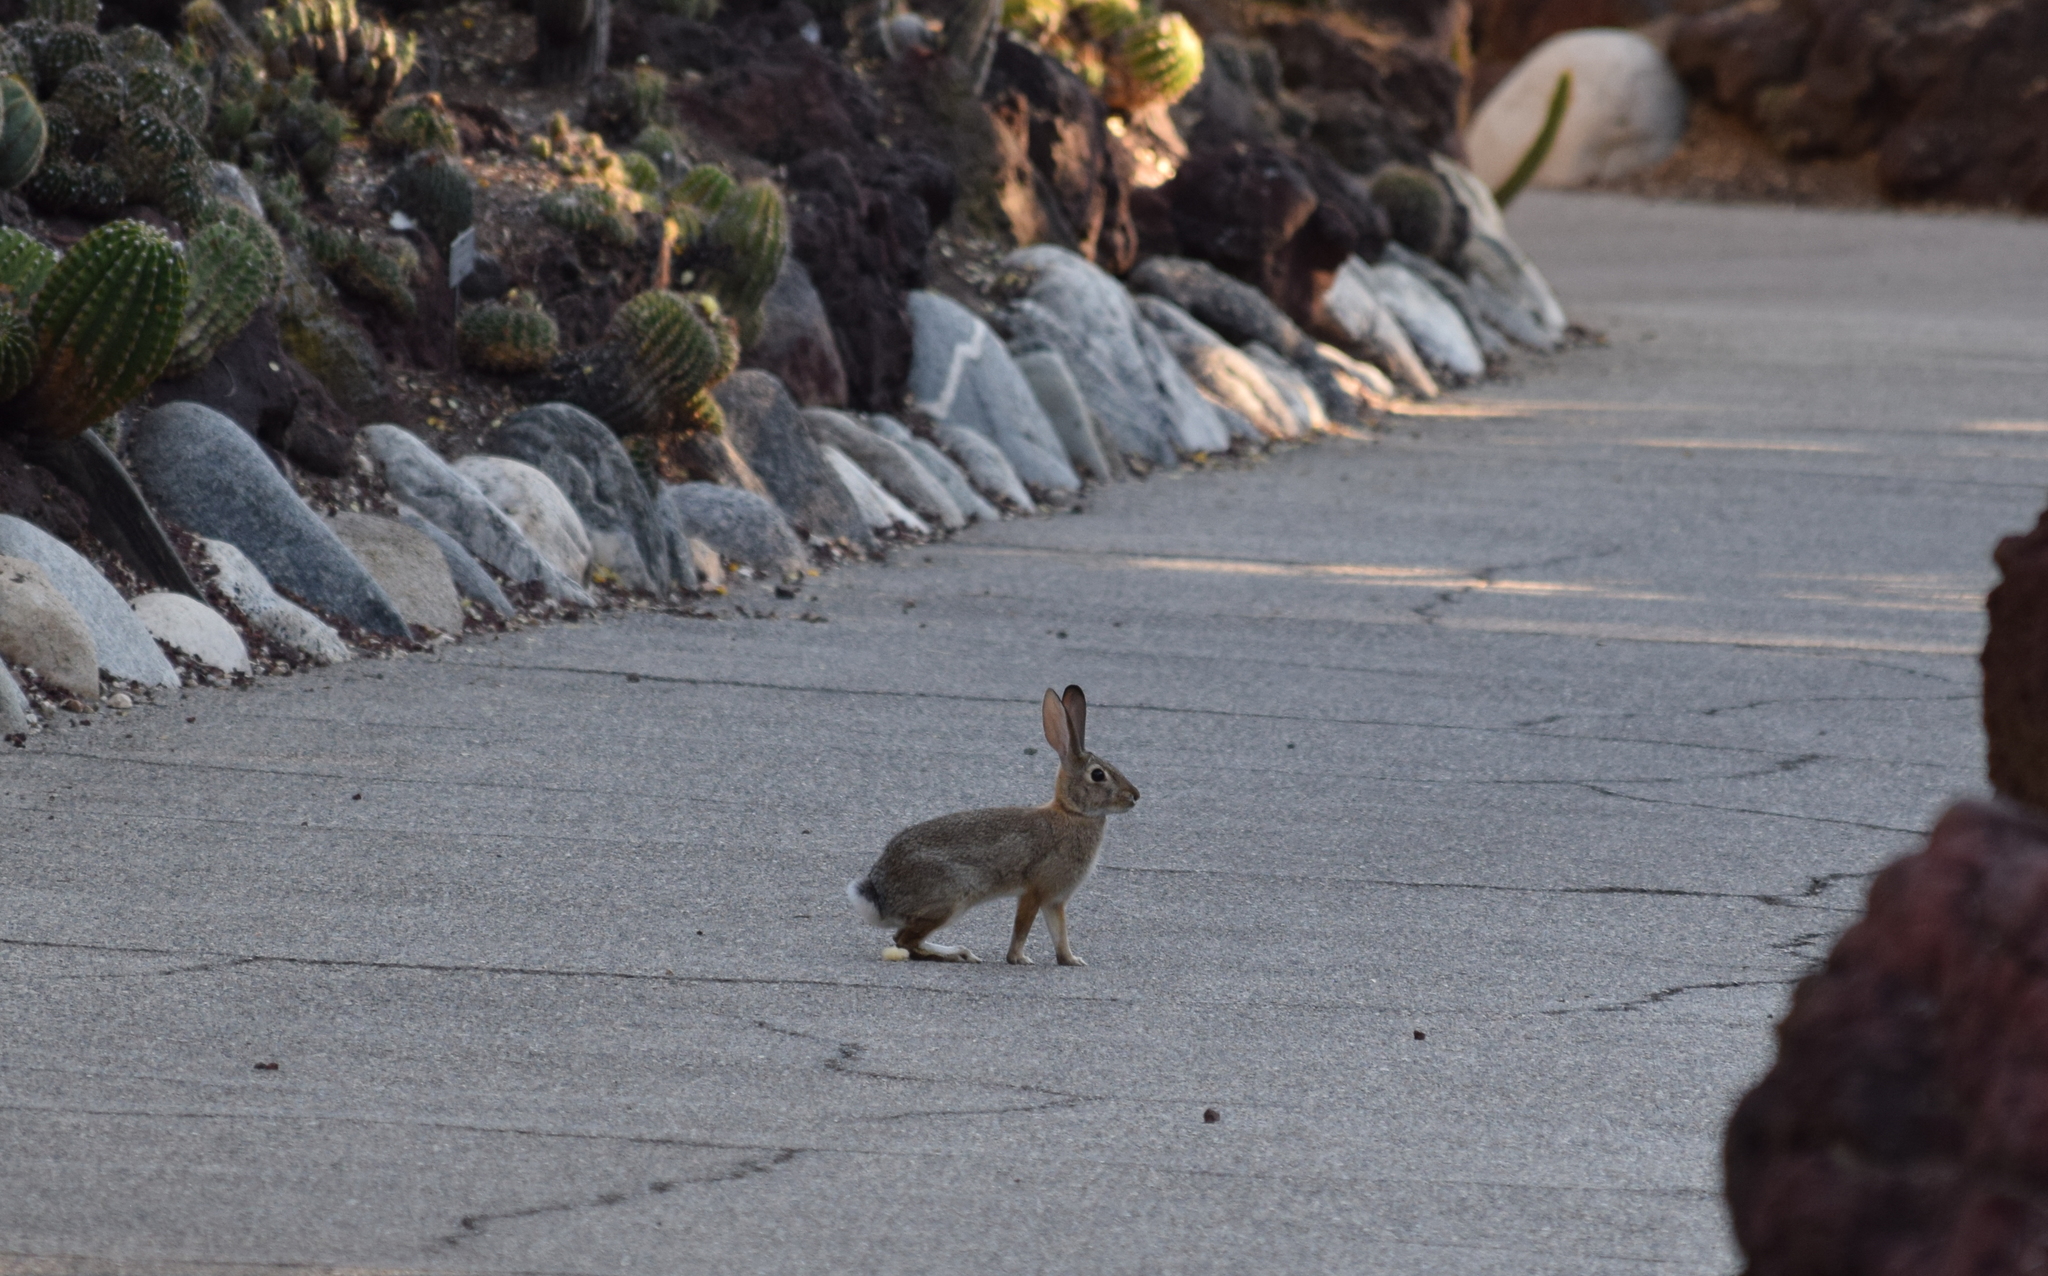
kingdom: Animalia
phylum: Chordata
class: Mammalia
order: Lagomorpha
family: Leporidae
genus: Sylvilagus
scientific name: Sylvilagus audubonii
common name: Desert cottontail
